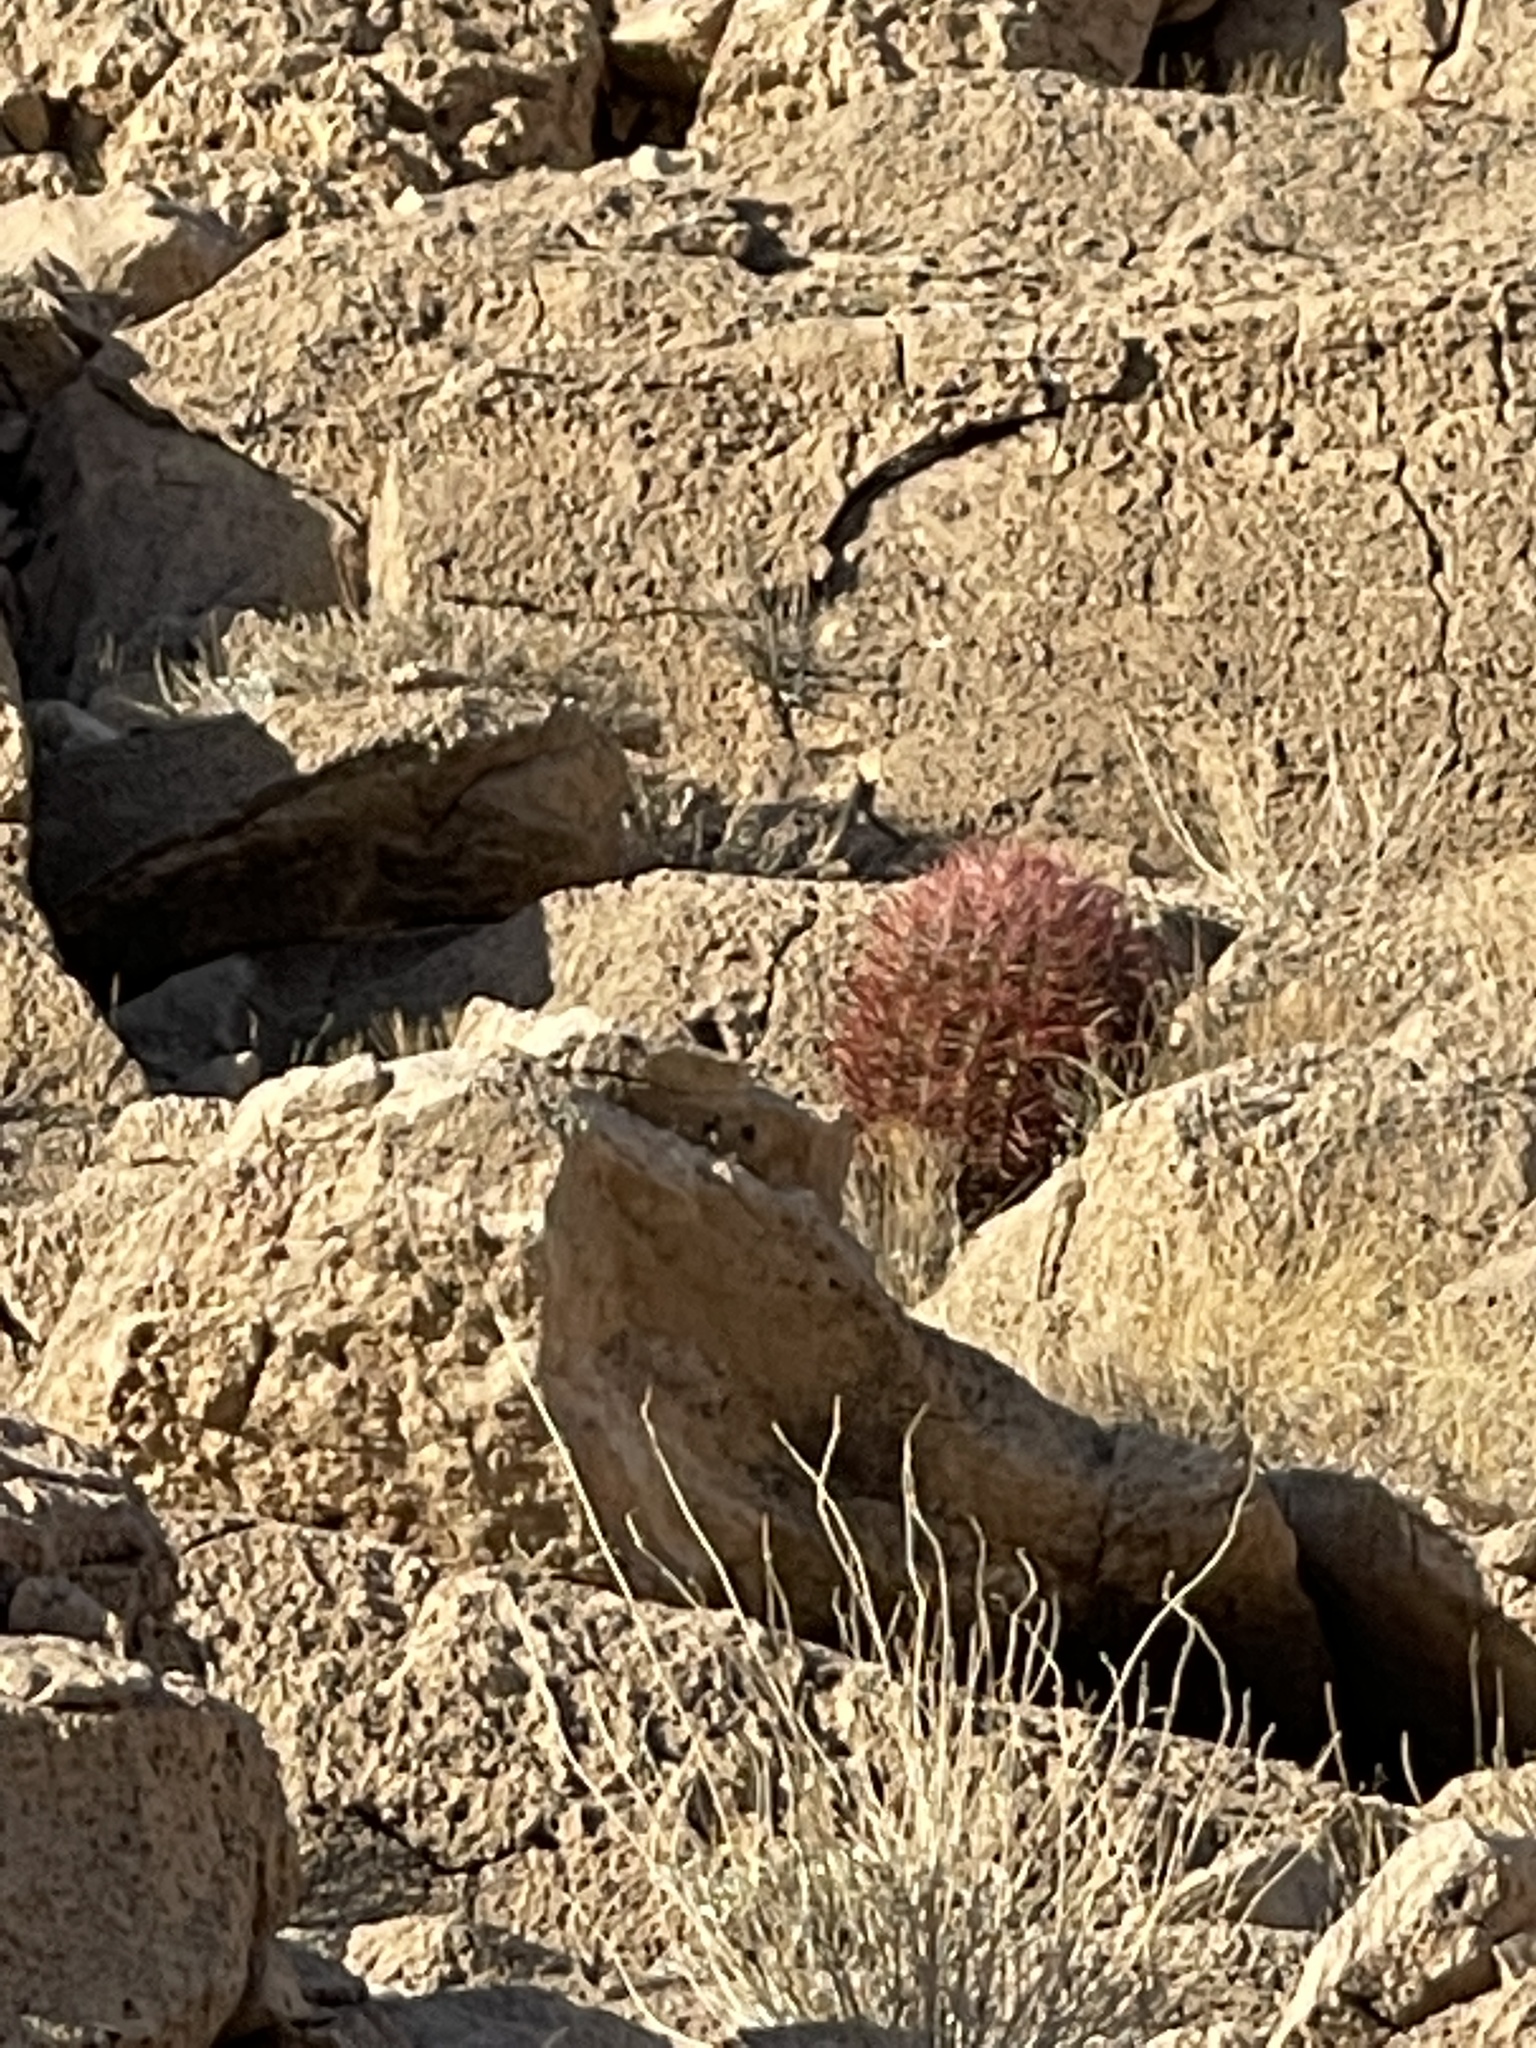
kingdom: Plantae
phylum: Tracheophyta
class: Magnoliopsida
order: Caryophyllales
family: Cactaceae
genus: Ferocactus
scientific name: Ferocactus cylindraceus
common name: California barrel cactus
